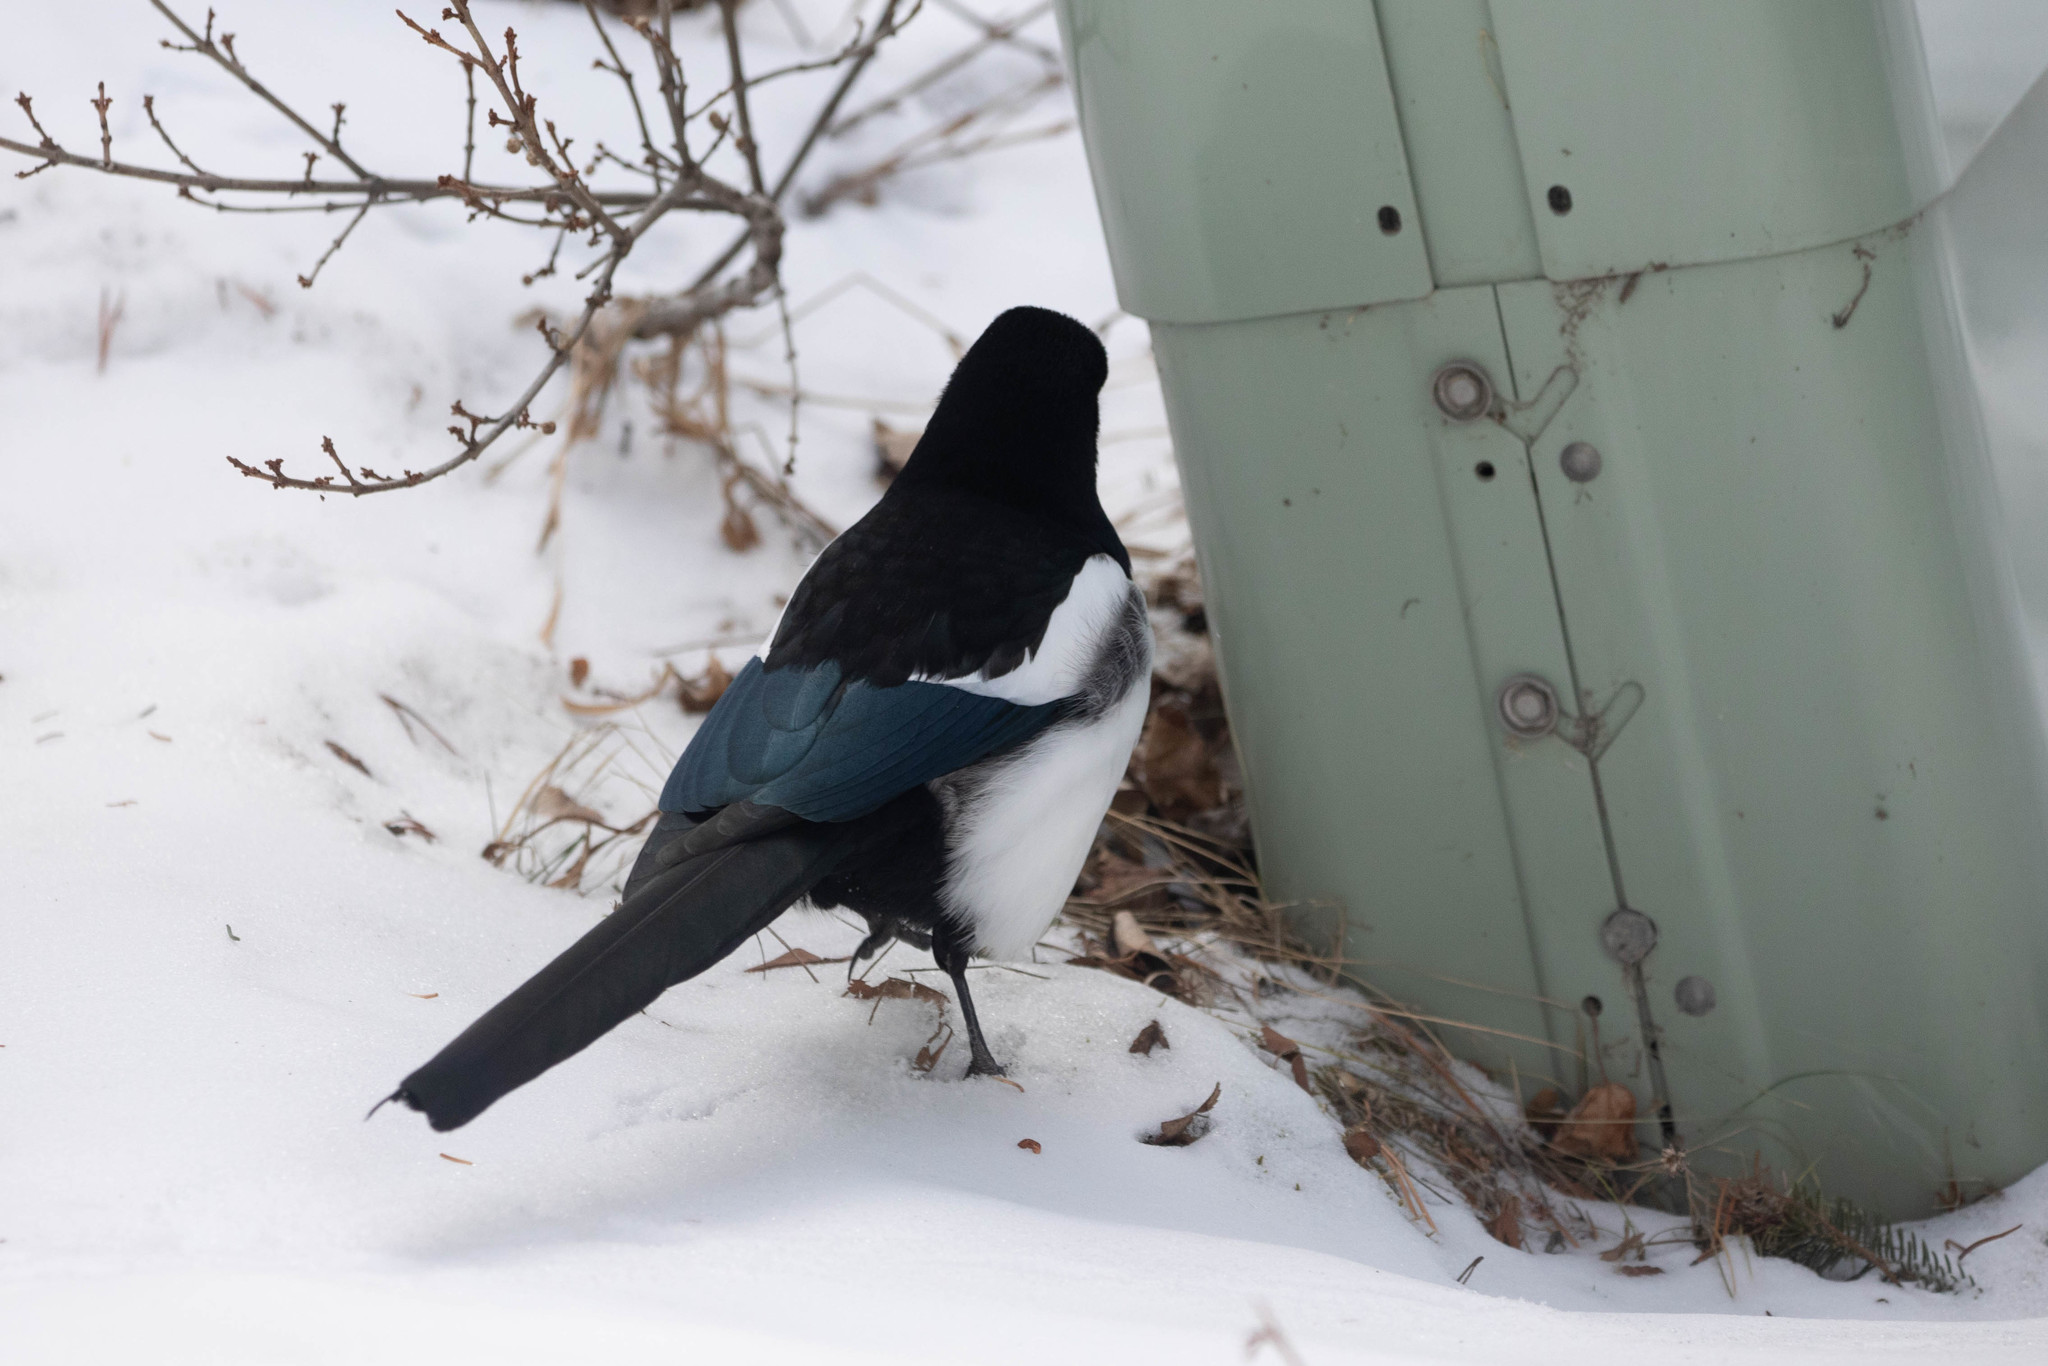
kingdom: Animalia
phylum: Chordata
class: Aves
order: Passeriformes
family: Corvidae
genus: Pica
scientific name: Pica hudsonia
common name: Black-billed magpie
